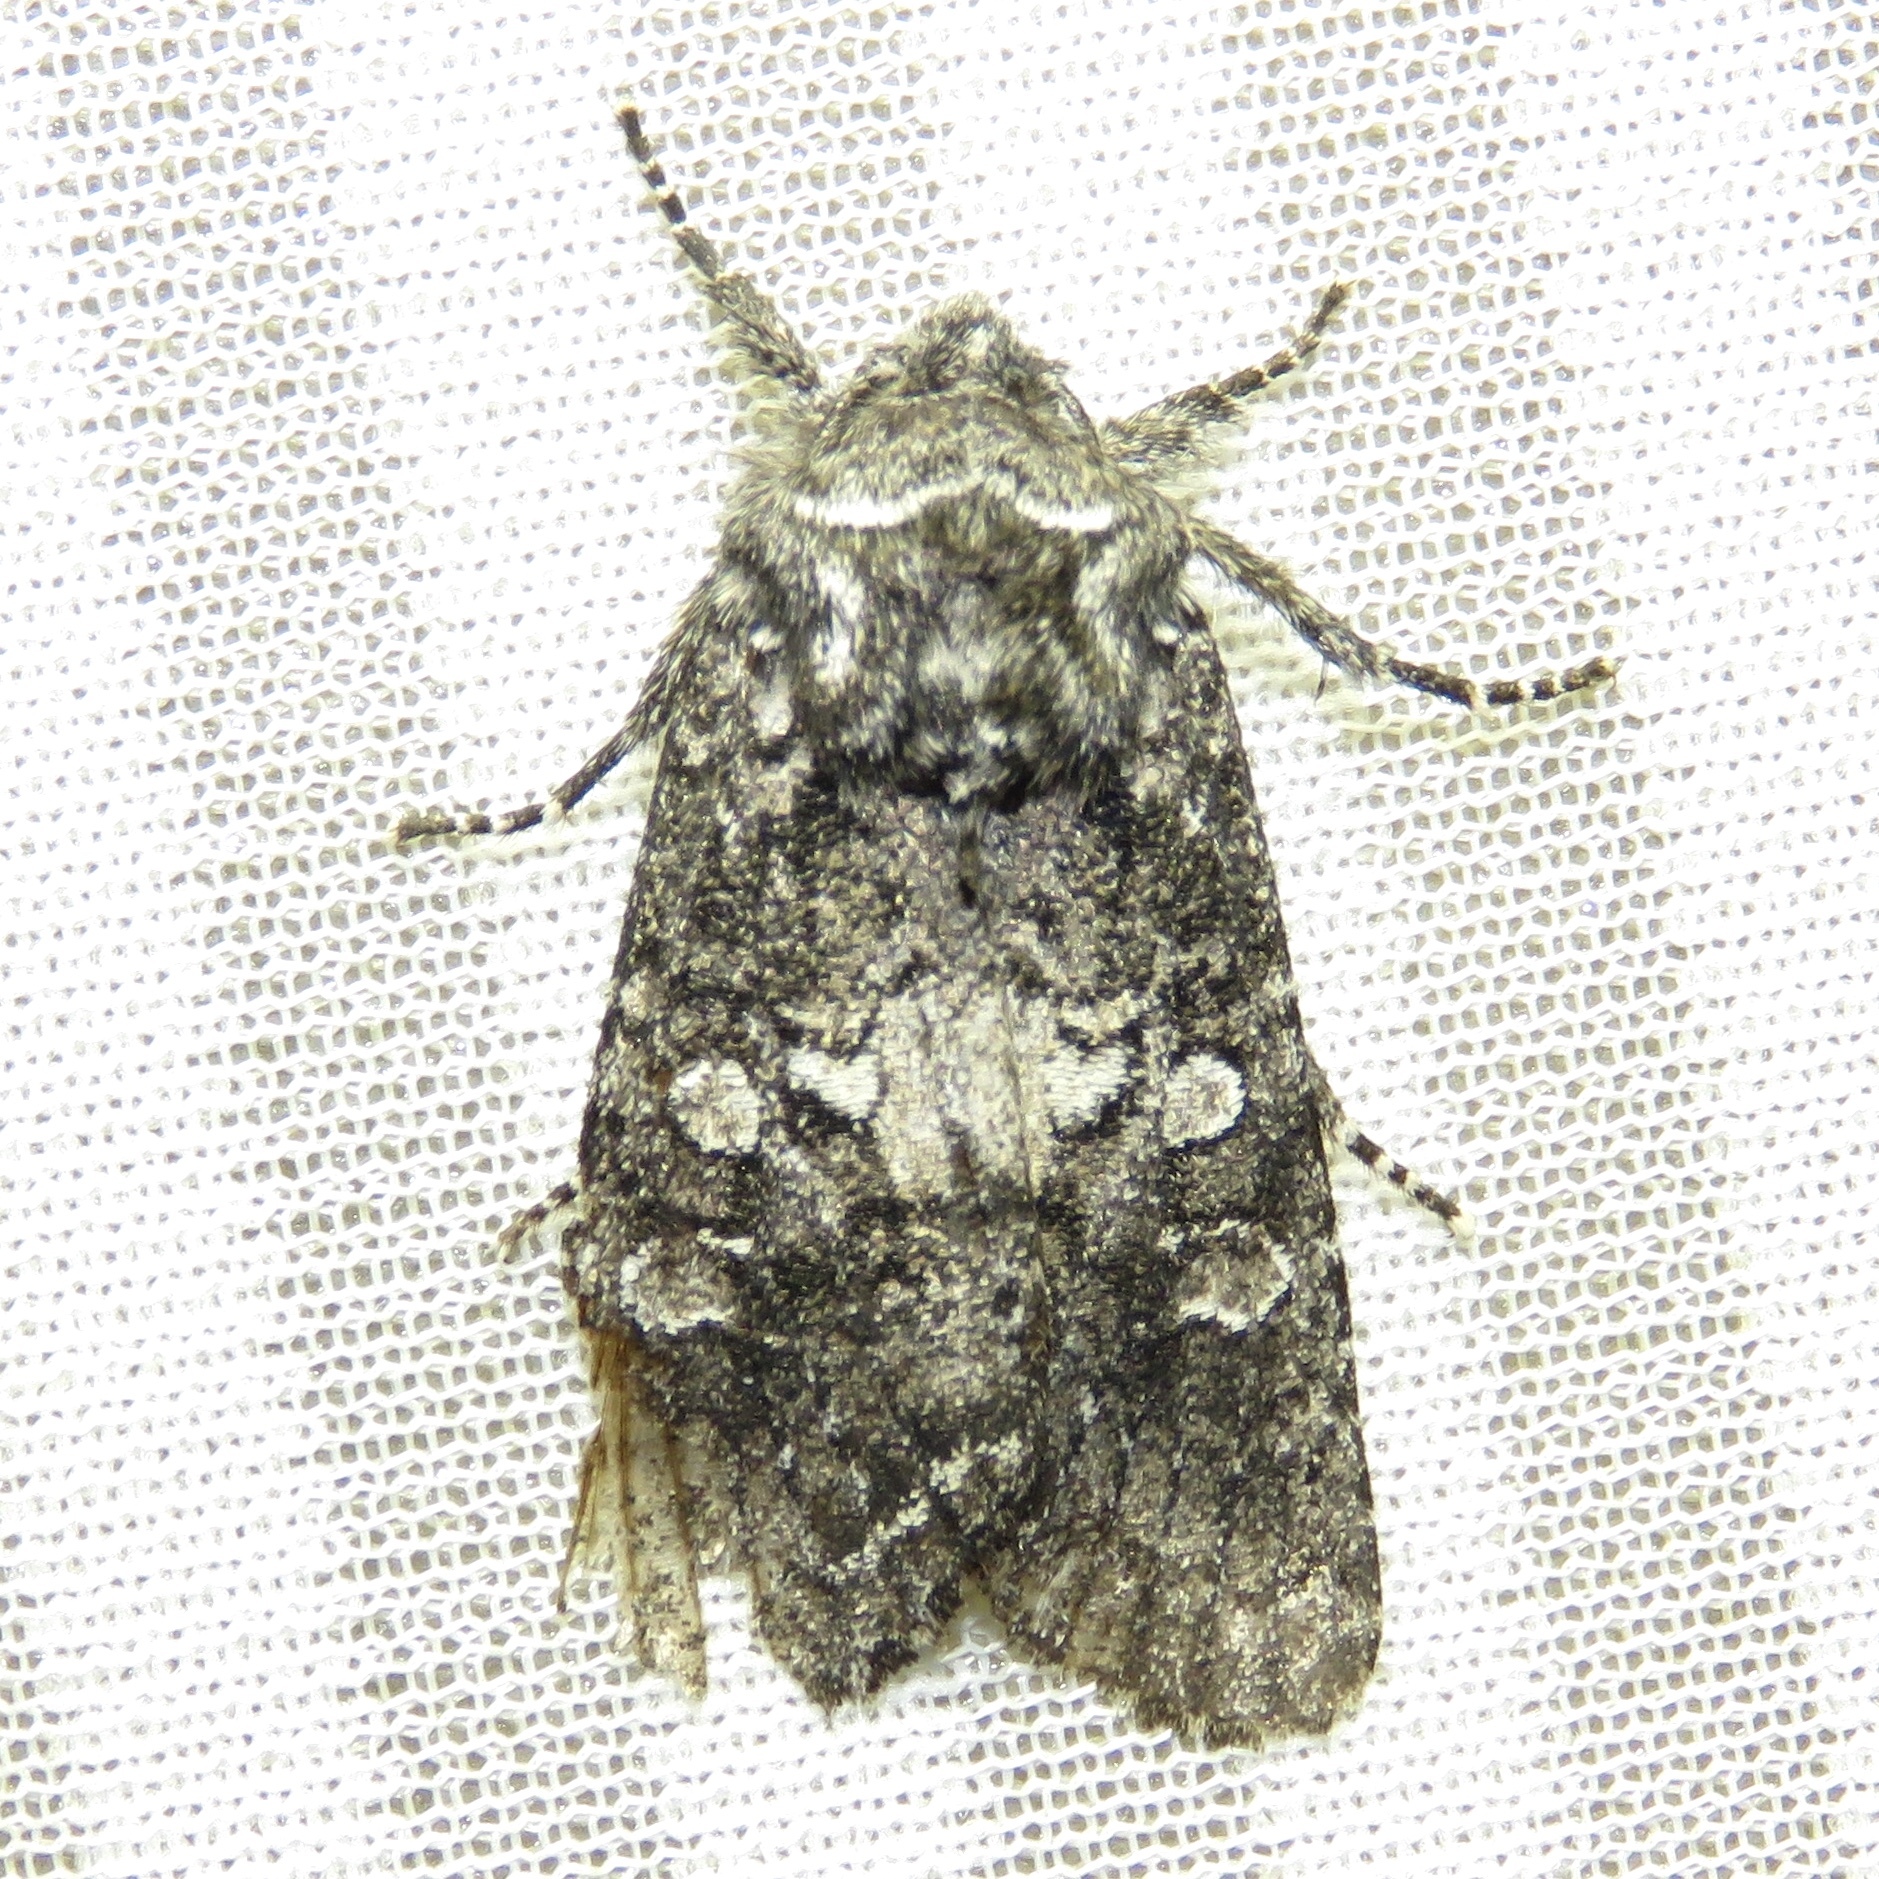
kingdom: Animalia
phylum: Arthropoda
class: Insecta
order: Lepidoptera
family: Noctuidae
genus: Psaphida
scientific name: Psaphida grotei
